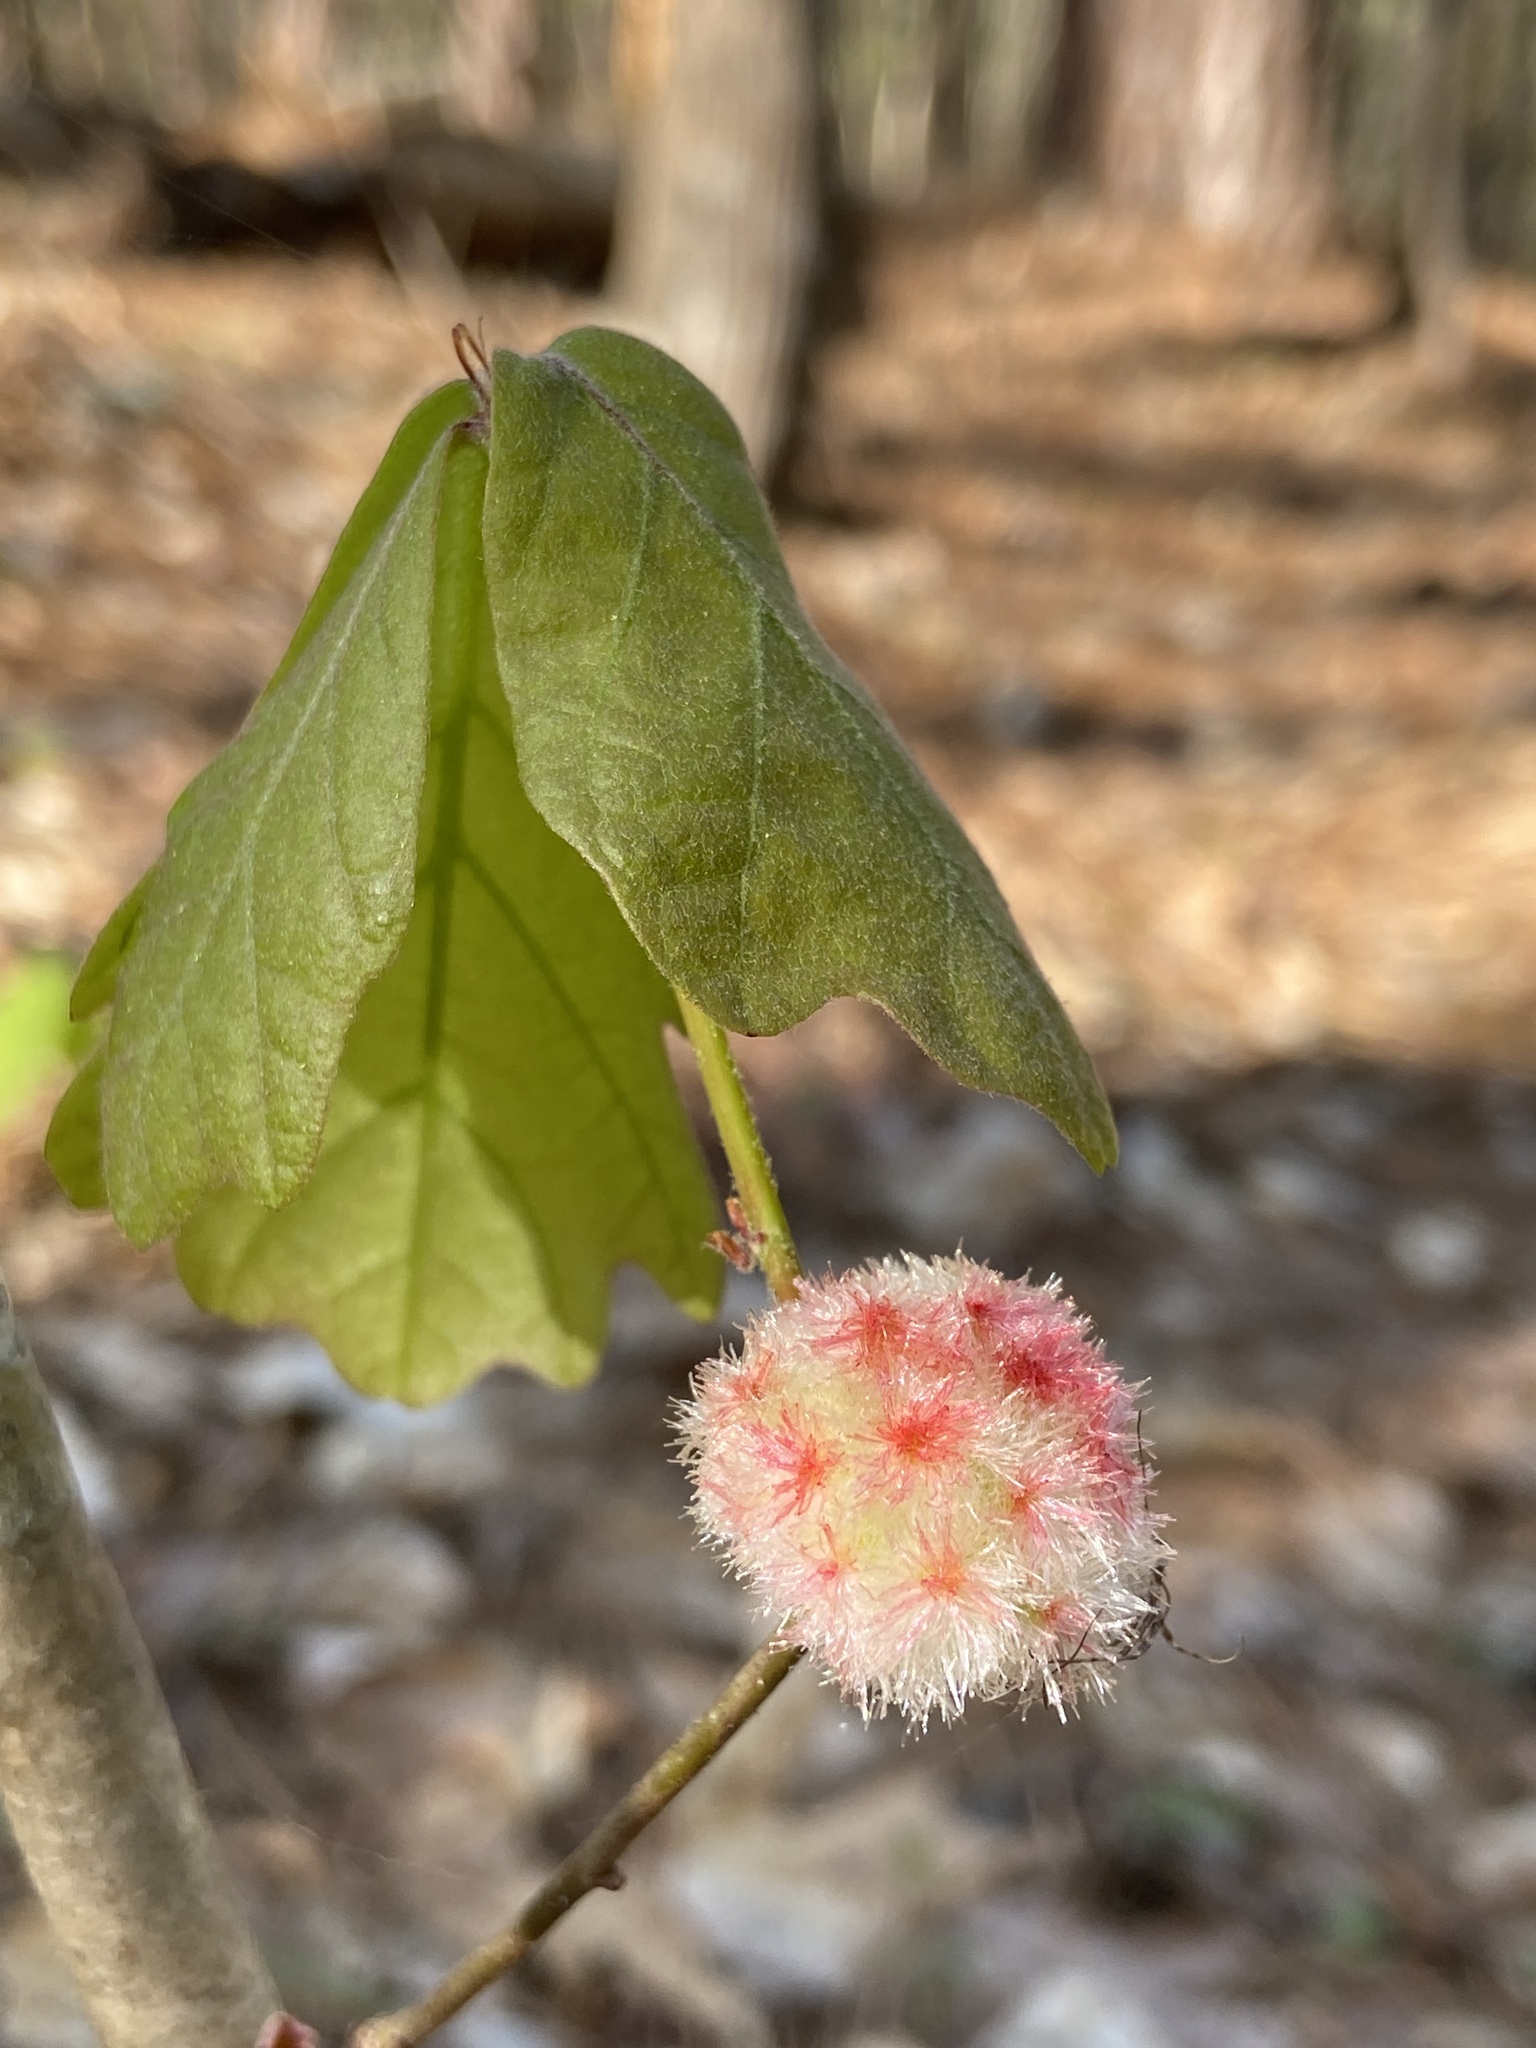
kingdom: Animalia
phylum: Arthropoda
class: Insecta
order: Hymenoptera
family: Cynipidae
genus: Callirhytis
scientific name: Callirhytis
